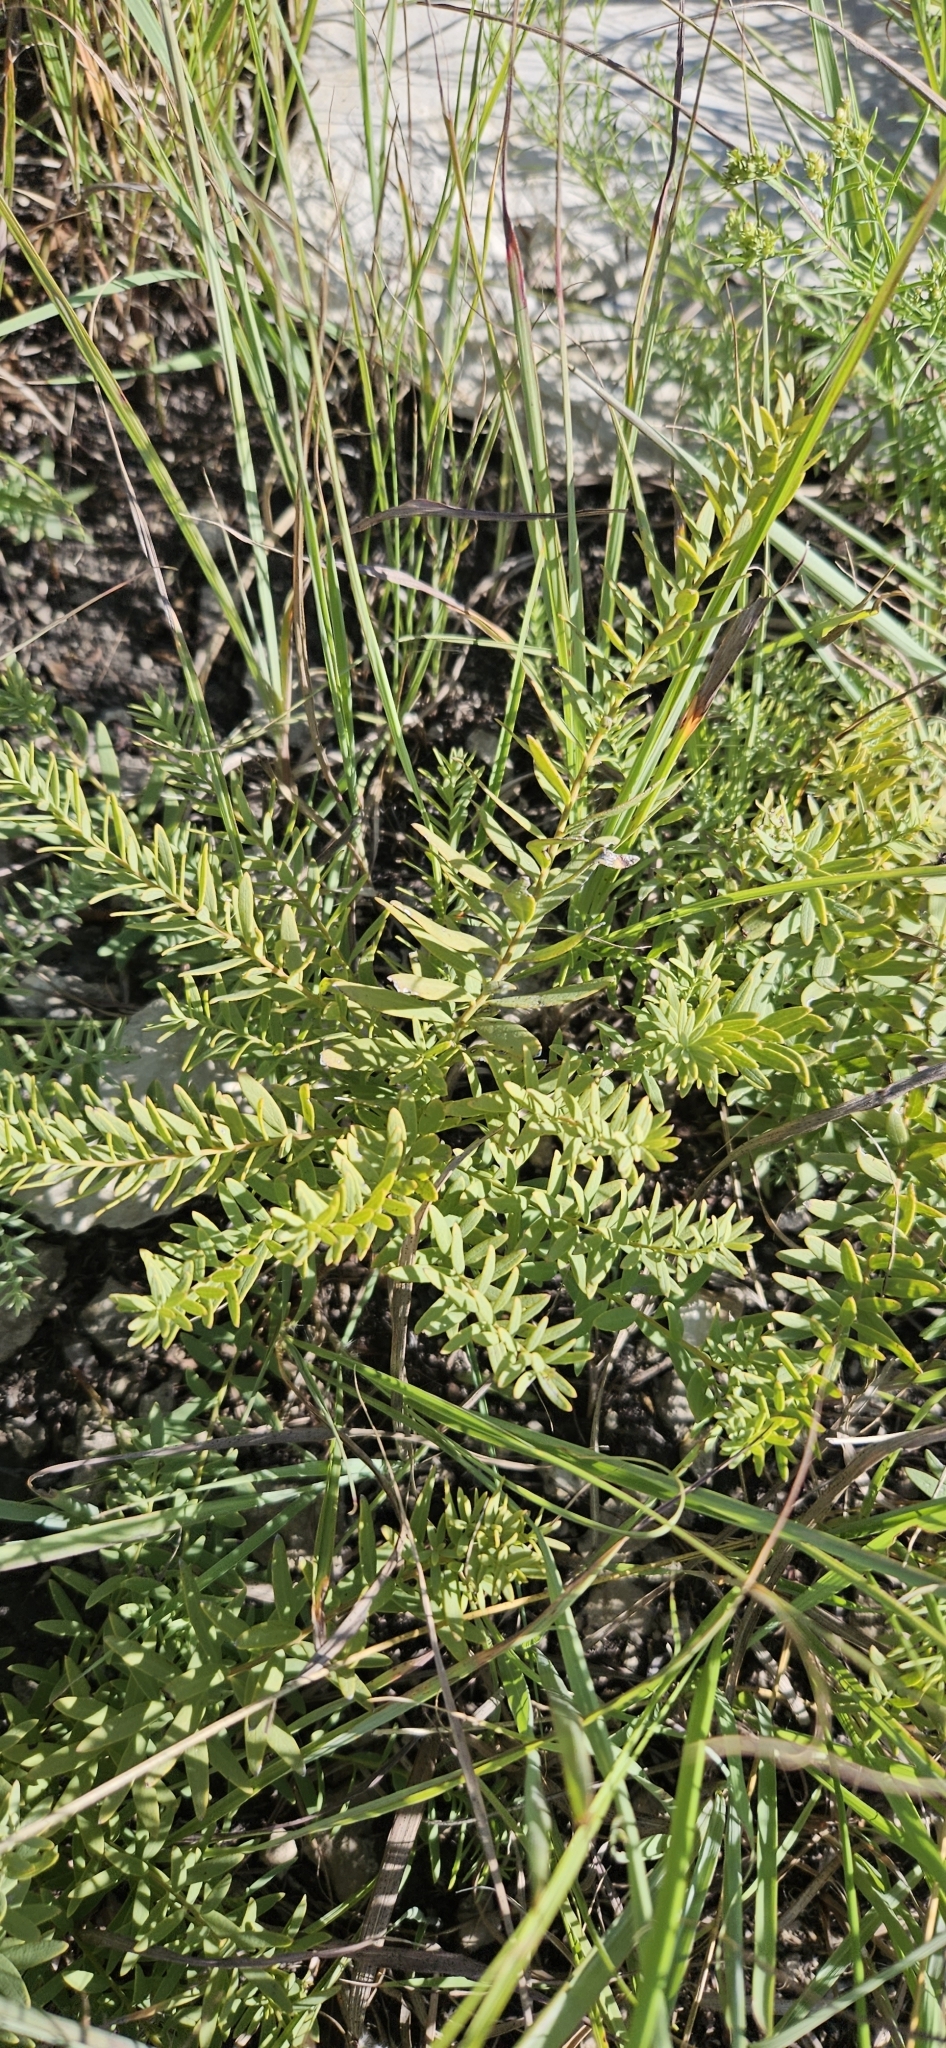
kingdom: Plantae
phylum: Tracheophyta
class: Magnoliopsida
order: Santalales
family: Comandraceae
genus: Comandra
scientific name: Comandra umbellata
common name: Bastard toadflax
